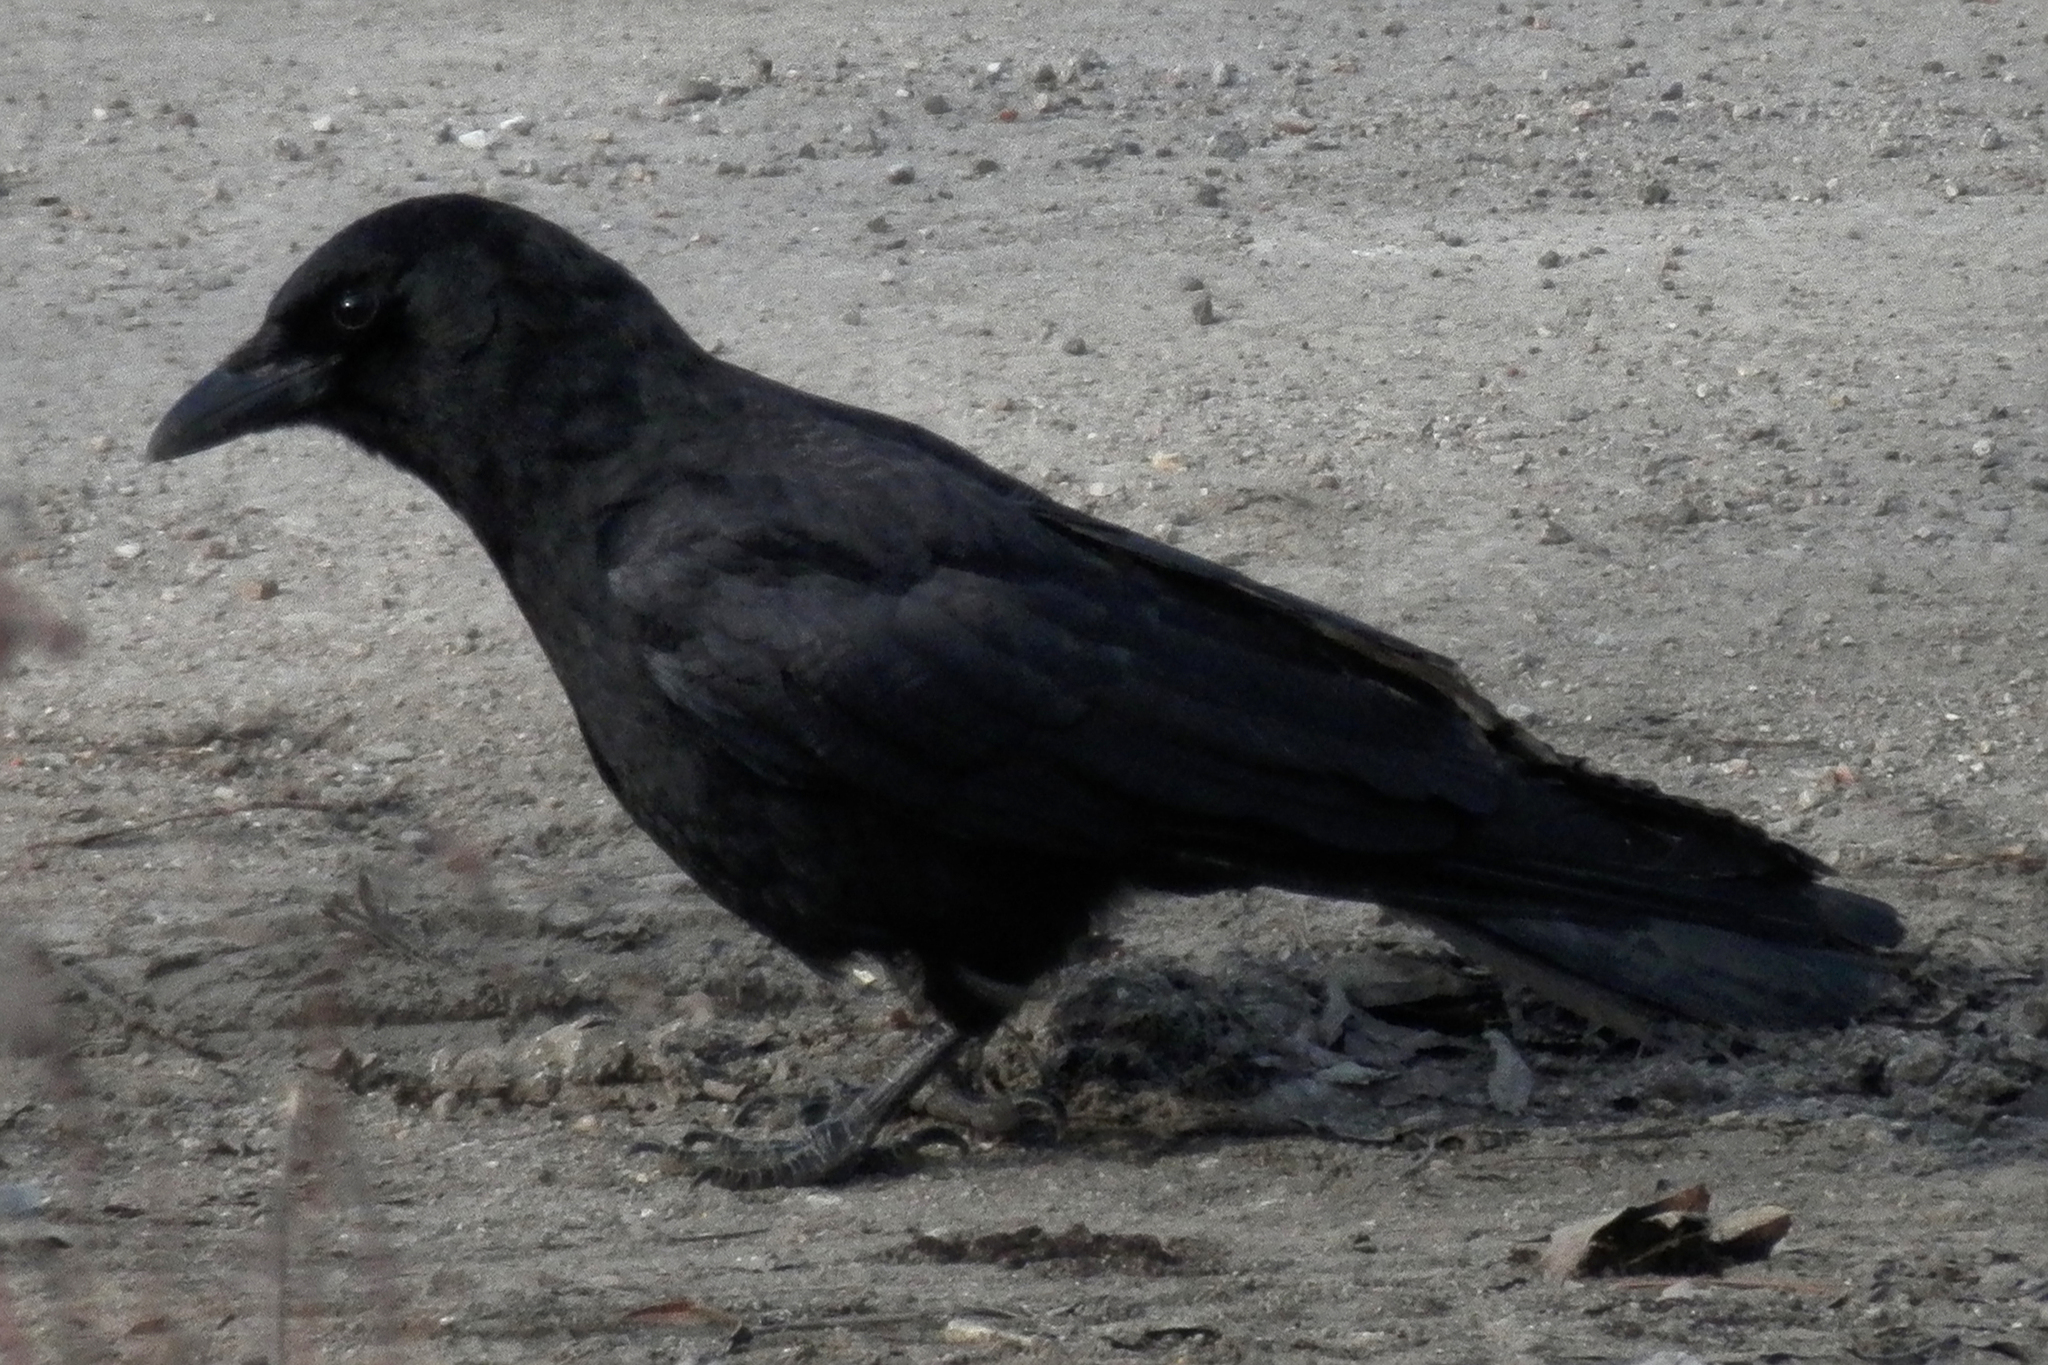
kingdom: Animalia
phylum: Chordata
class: Aves
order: Passeriformes
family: Corvidae
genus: Corvus
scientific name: Corvus brachyrhynchos
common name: American crow
